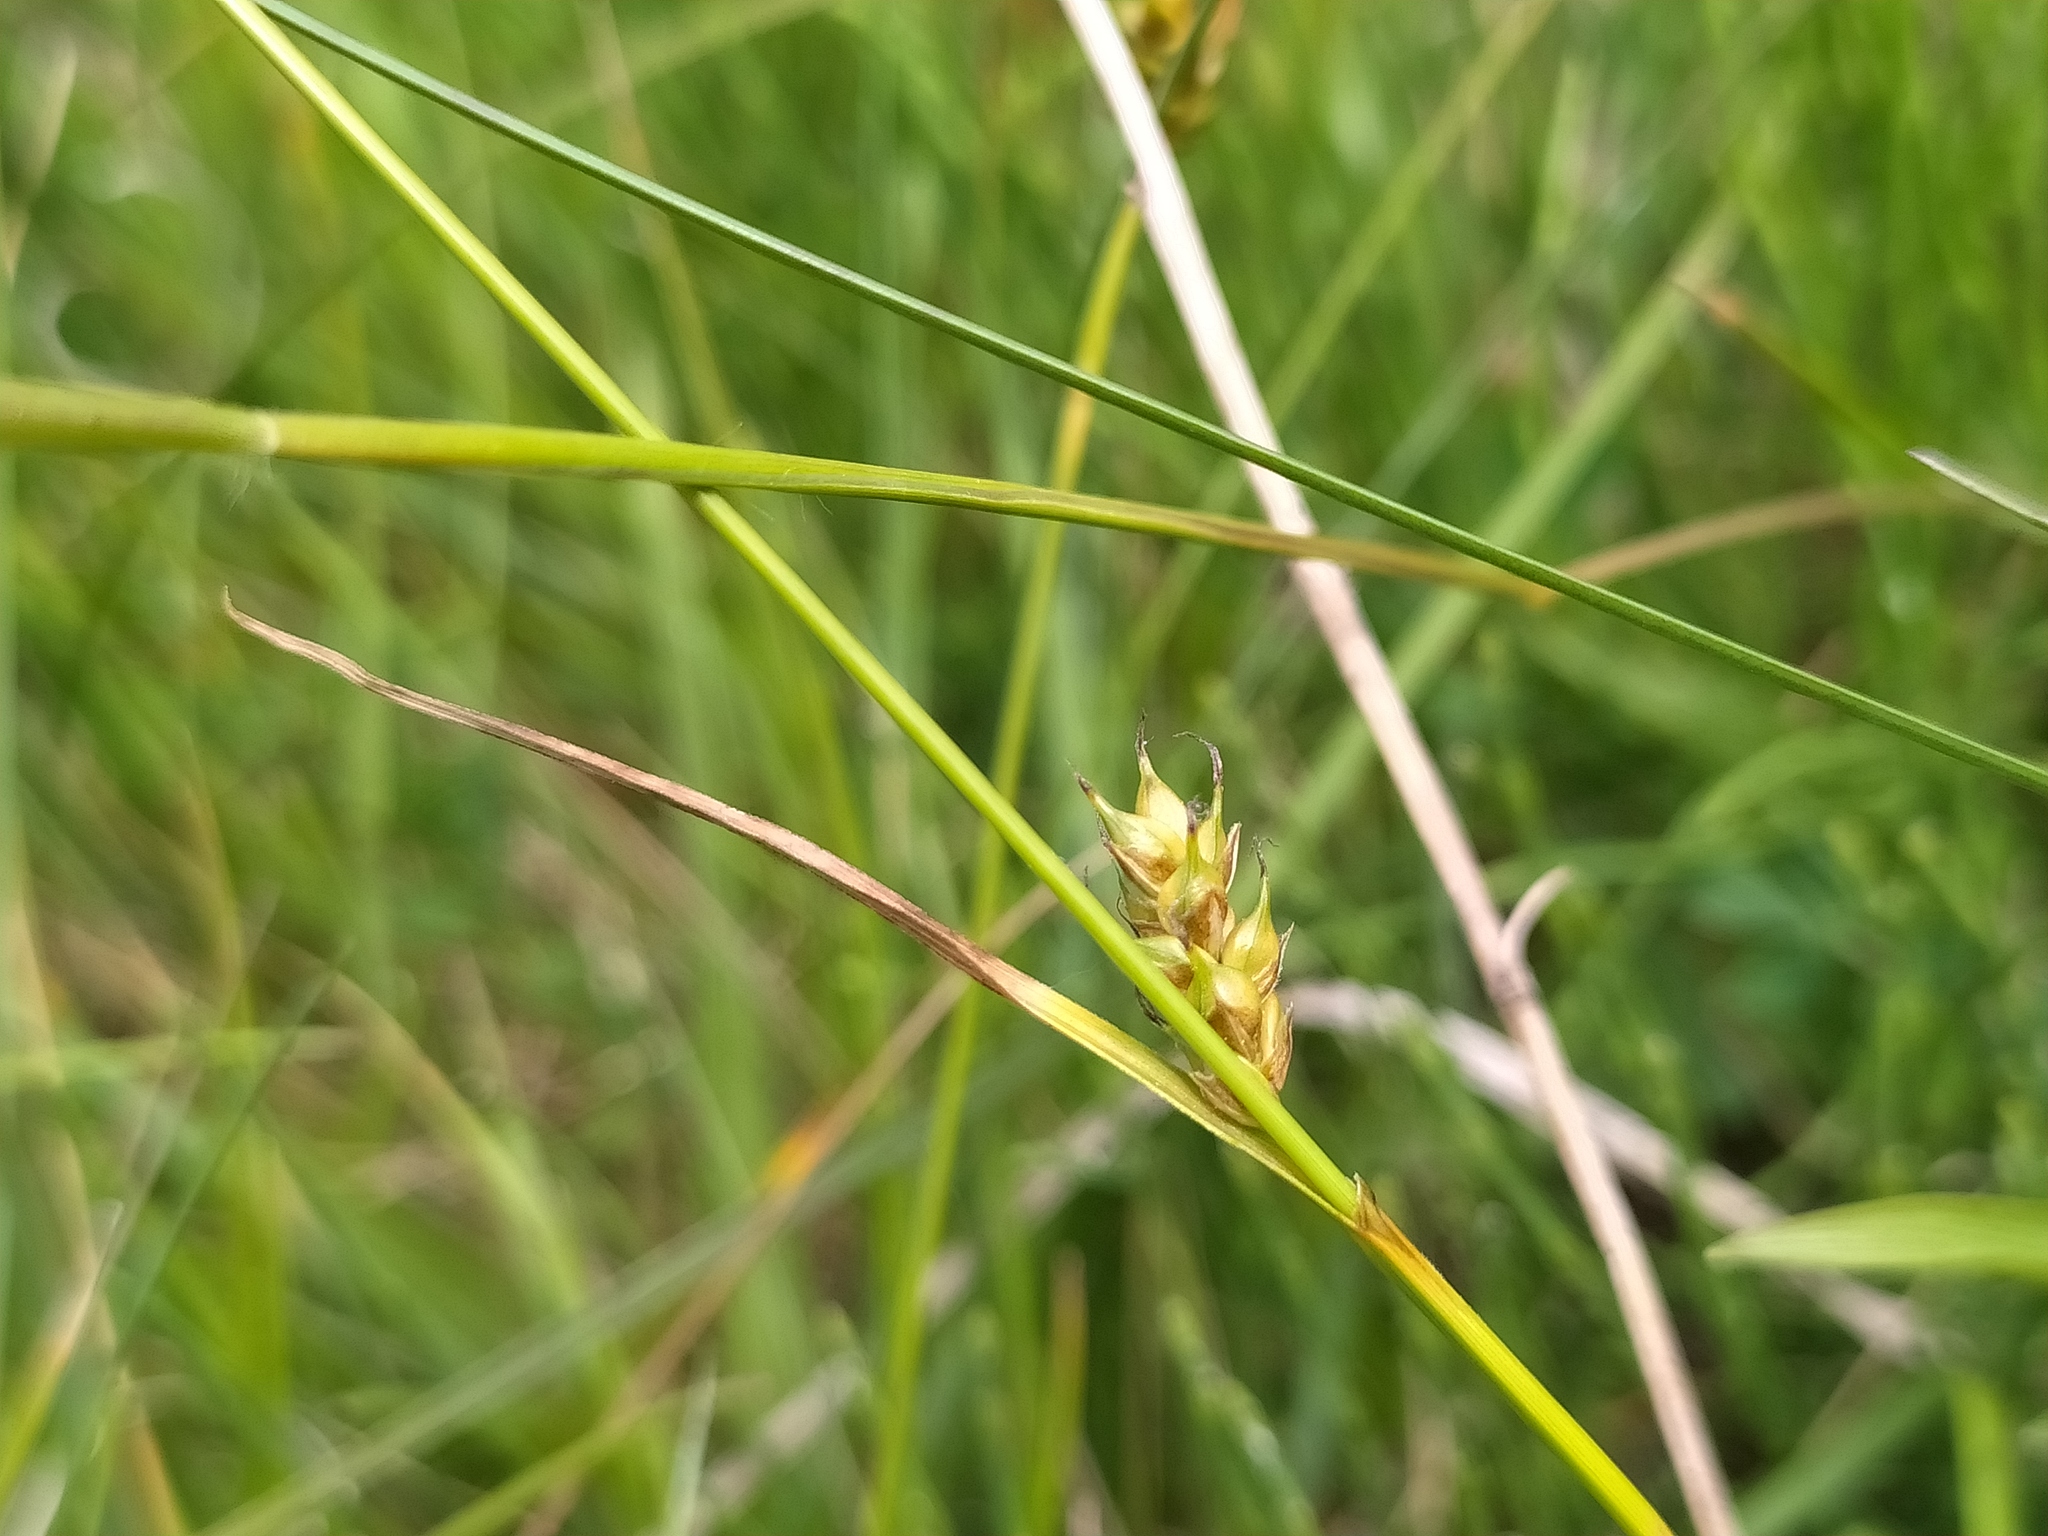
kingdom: Plantae
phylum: Tracheophyta
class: Liliopsida
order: Poales
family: Cyperaceae
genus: Carex
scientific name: Carex distans
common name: Distant sedge
